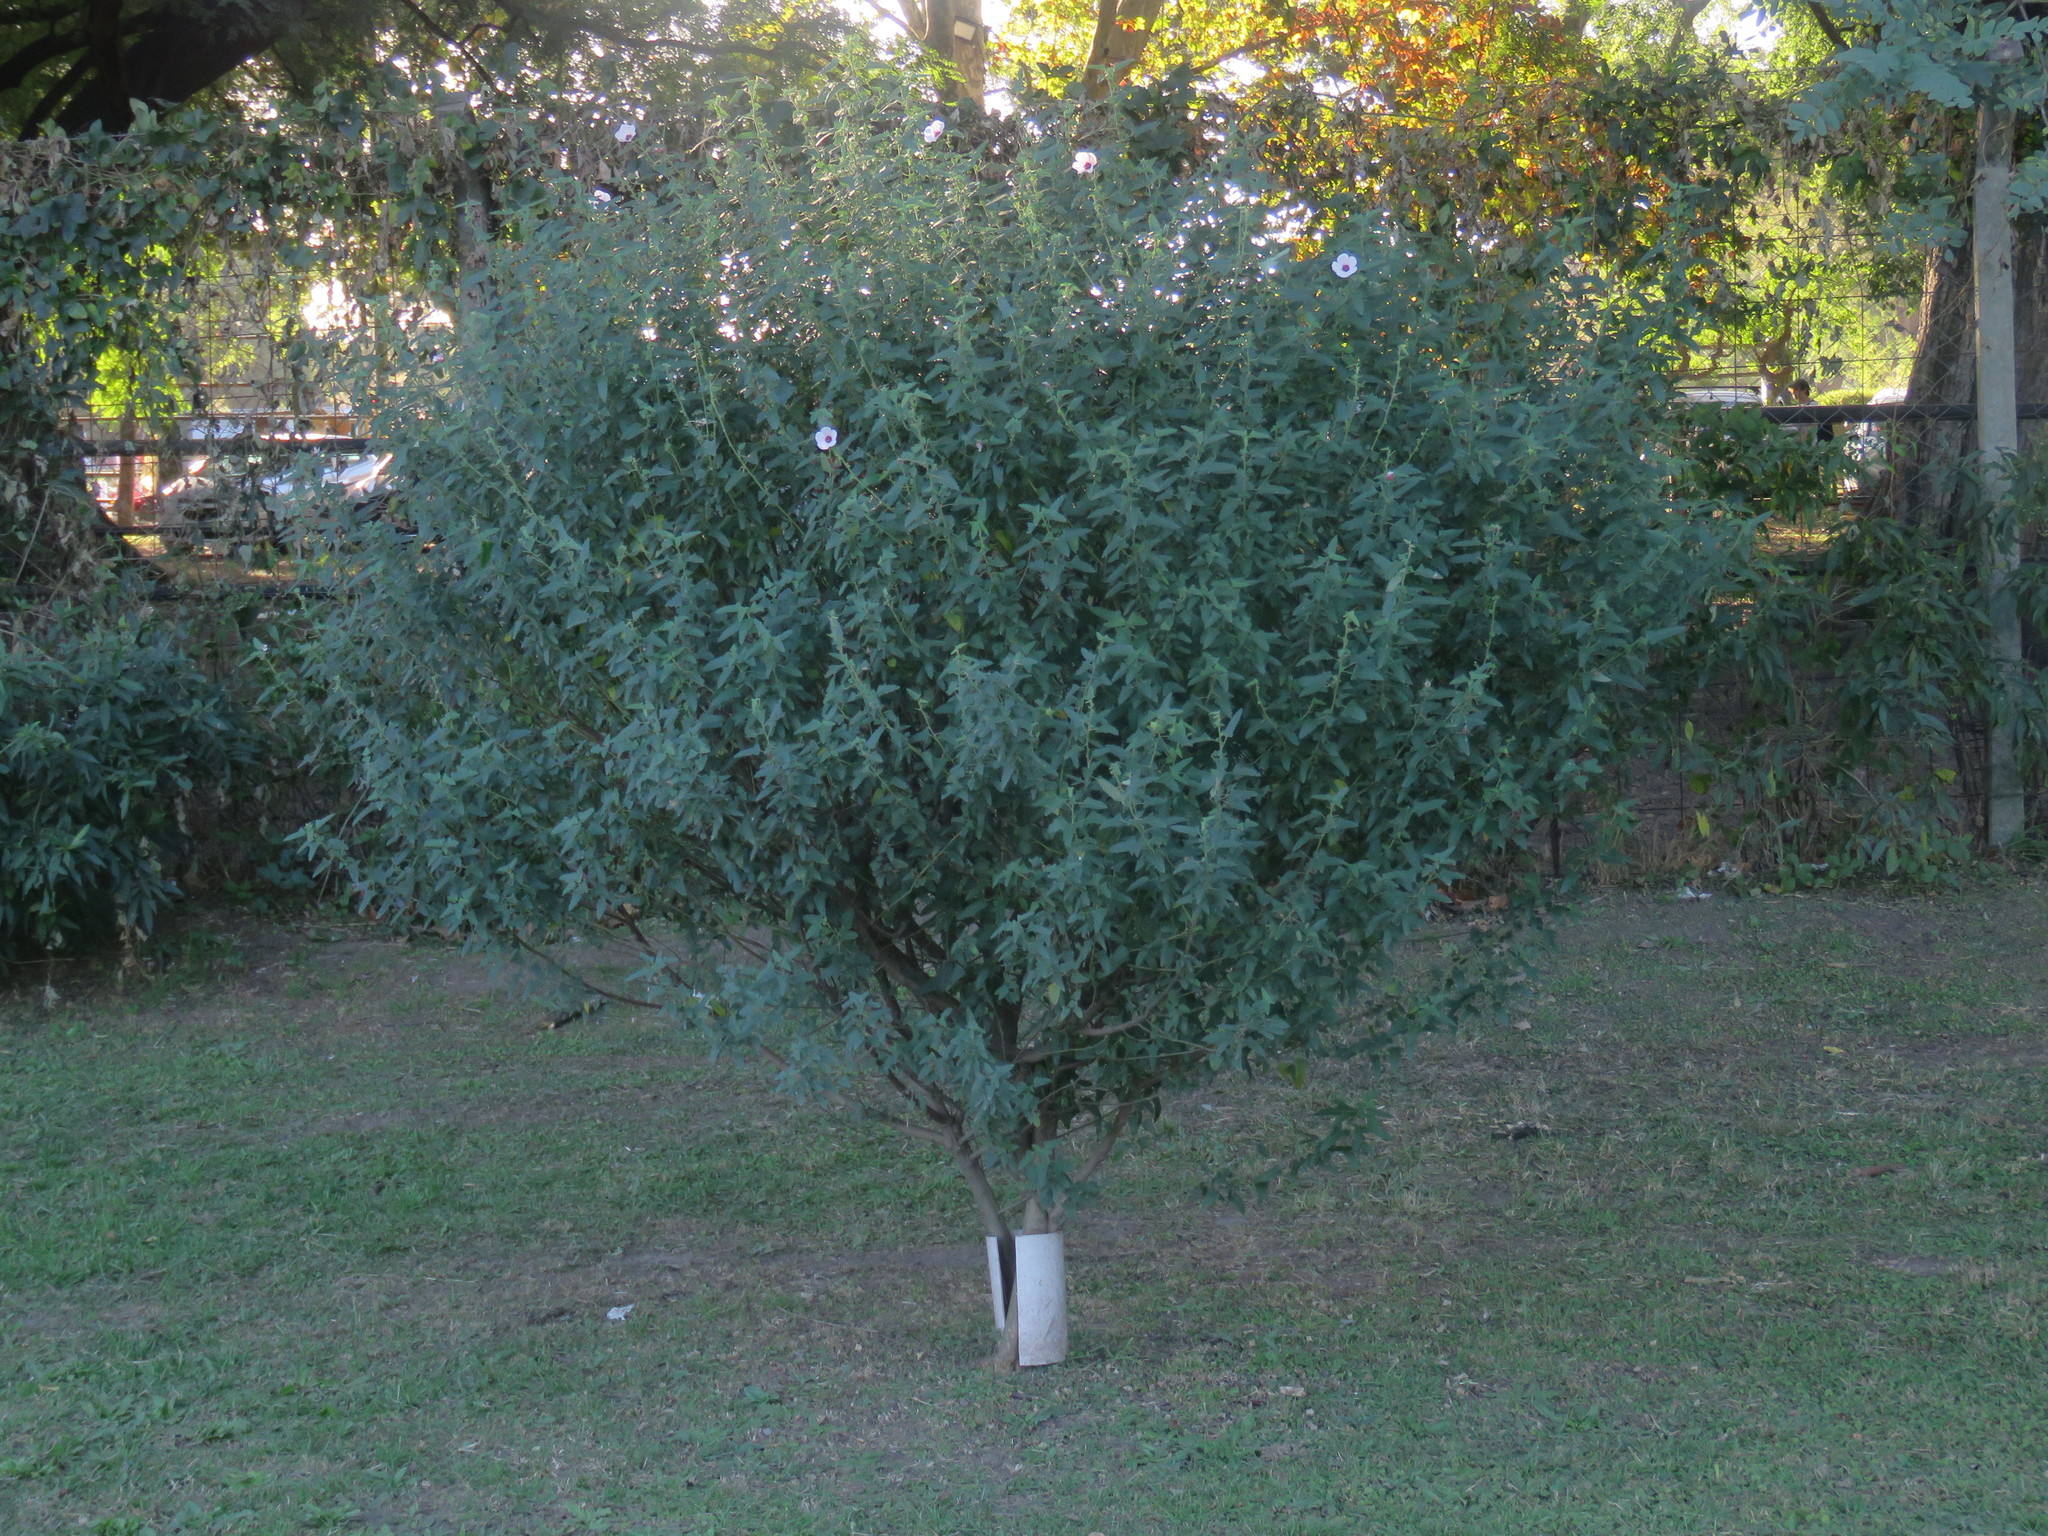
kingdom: Plantae
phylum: Tracheophyta
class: Magnoliopsida
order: Malvales
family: Malvaceae
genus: Pavonia
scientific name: Pavonia hastata
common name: Spearleaf swampmallow
